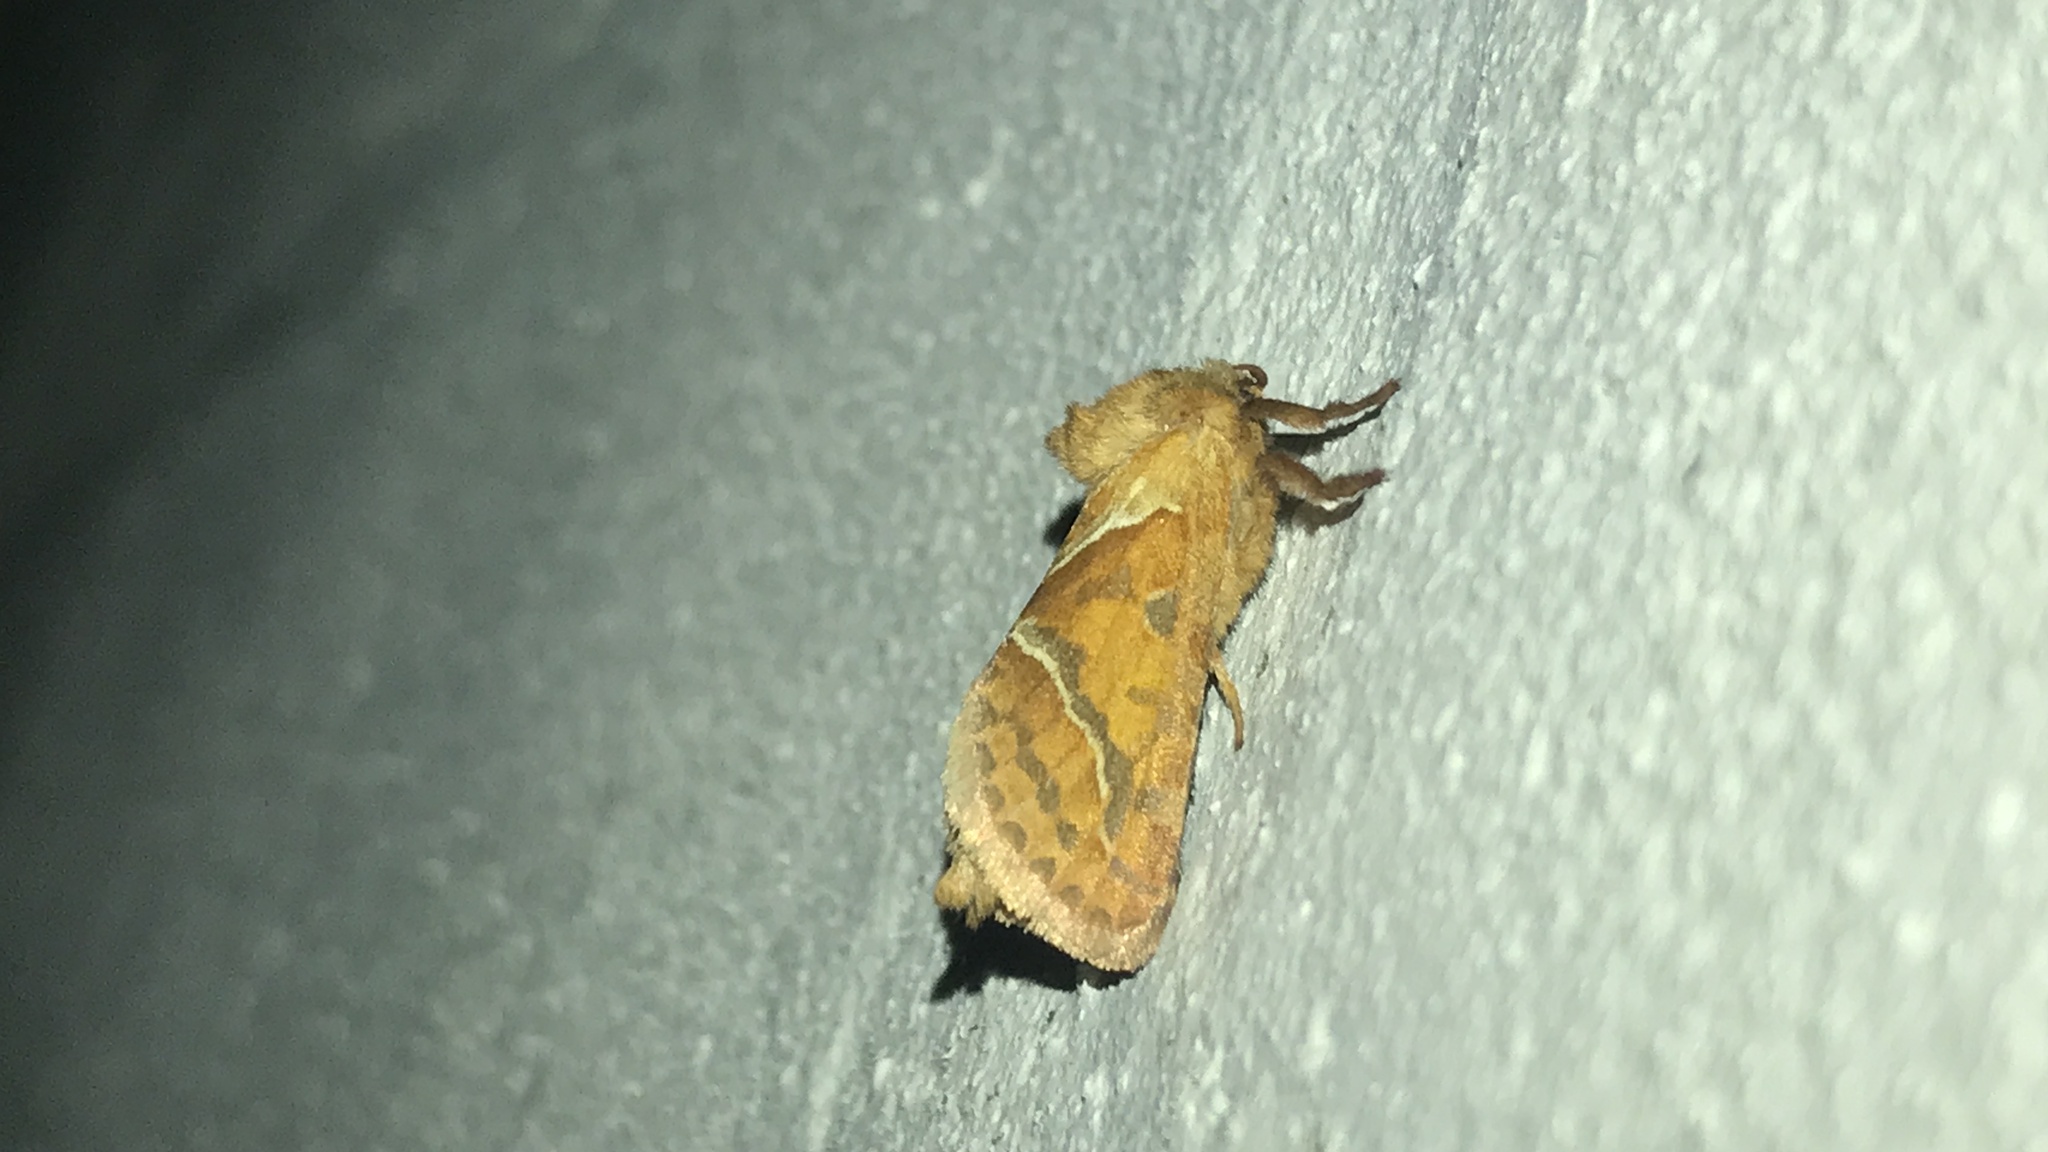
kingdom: Animalia
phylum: Arthropoda
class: Insecta
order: Lepidoptera
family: Hepialidae
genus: Triodia
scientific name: Triodia sylvina
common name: Orange swift
